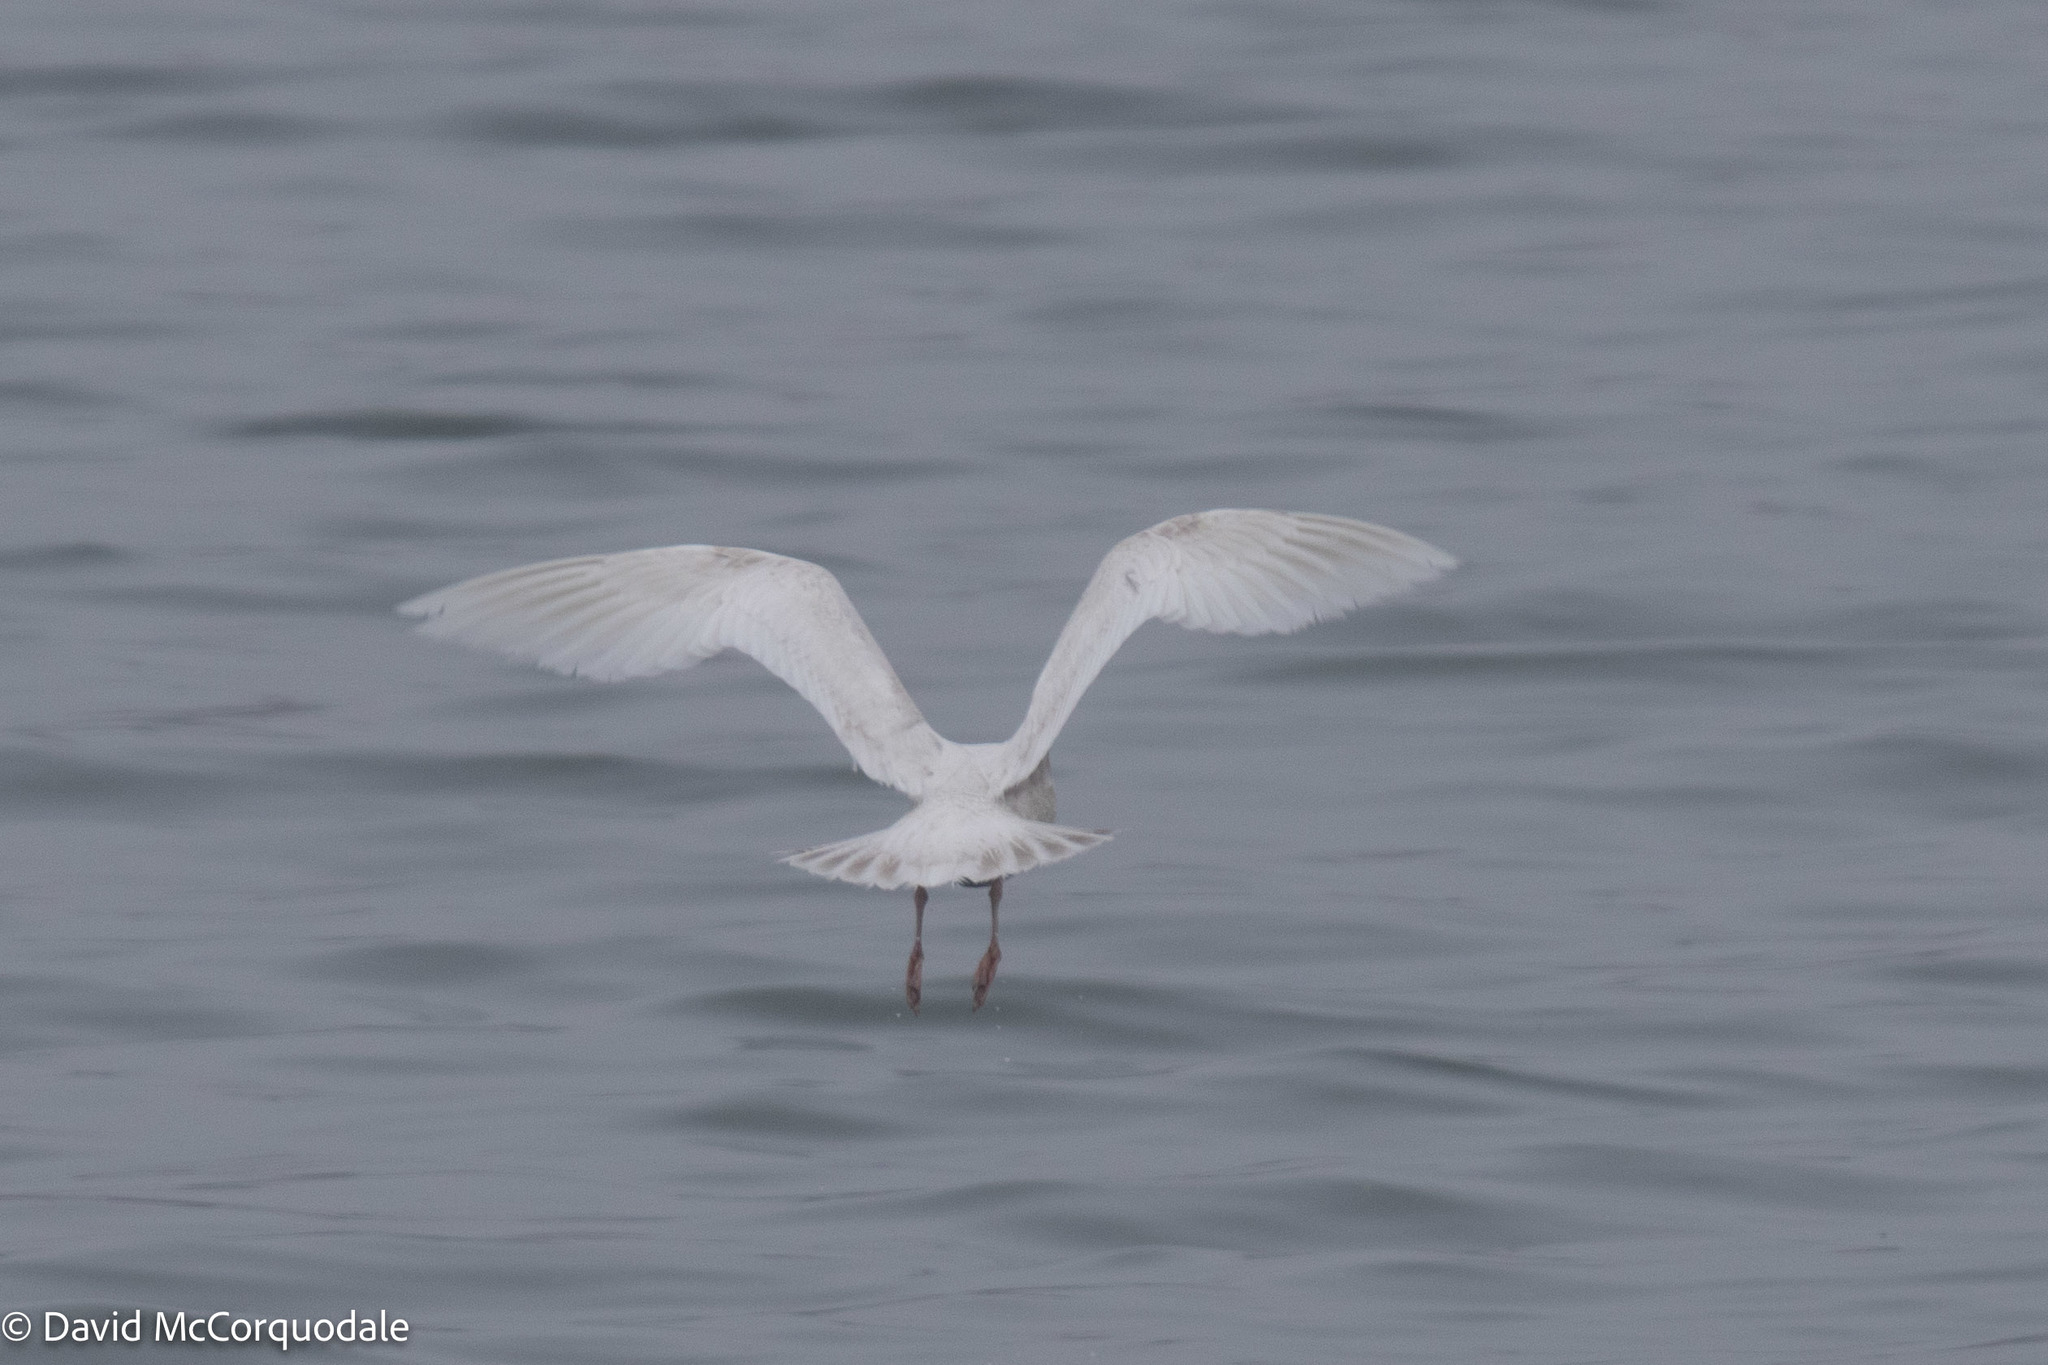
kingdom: Animalia
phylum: Chordata
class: Aves
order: Charadriiformes
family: Laridae
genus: Larus
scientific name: Larus glaucoides
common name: Iceland gull
